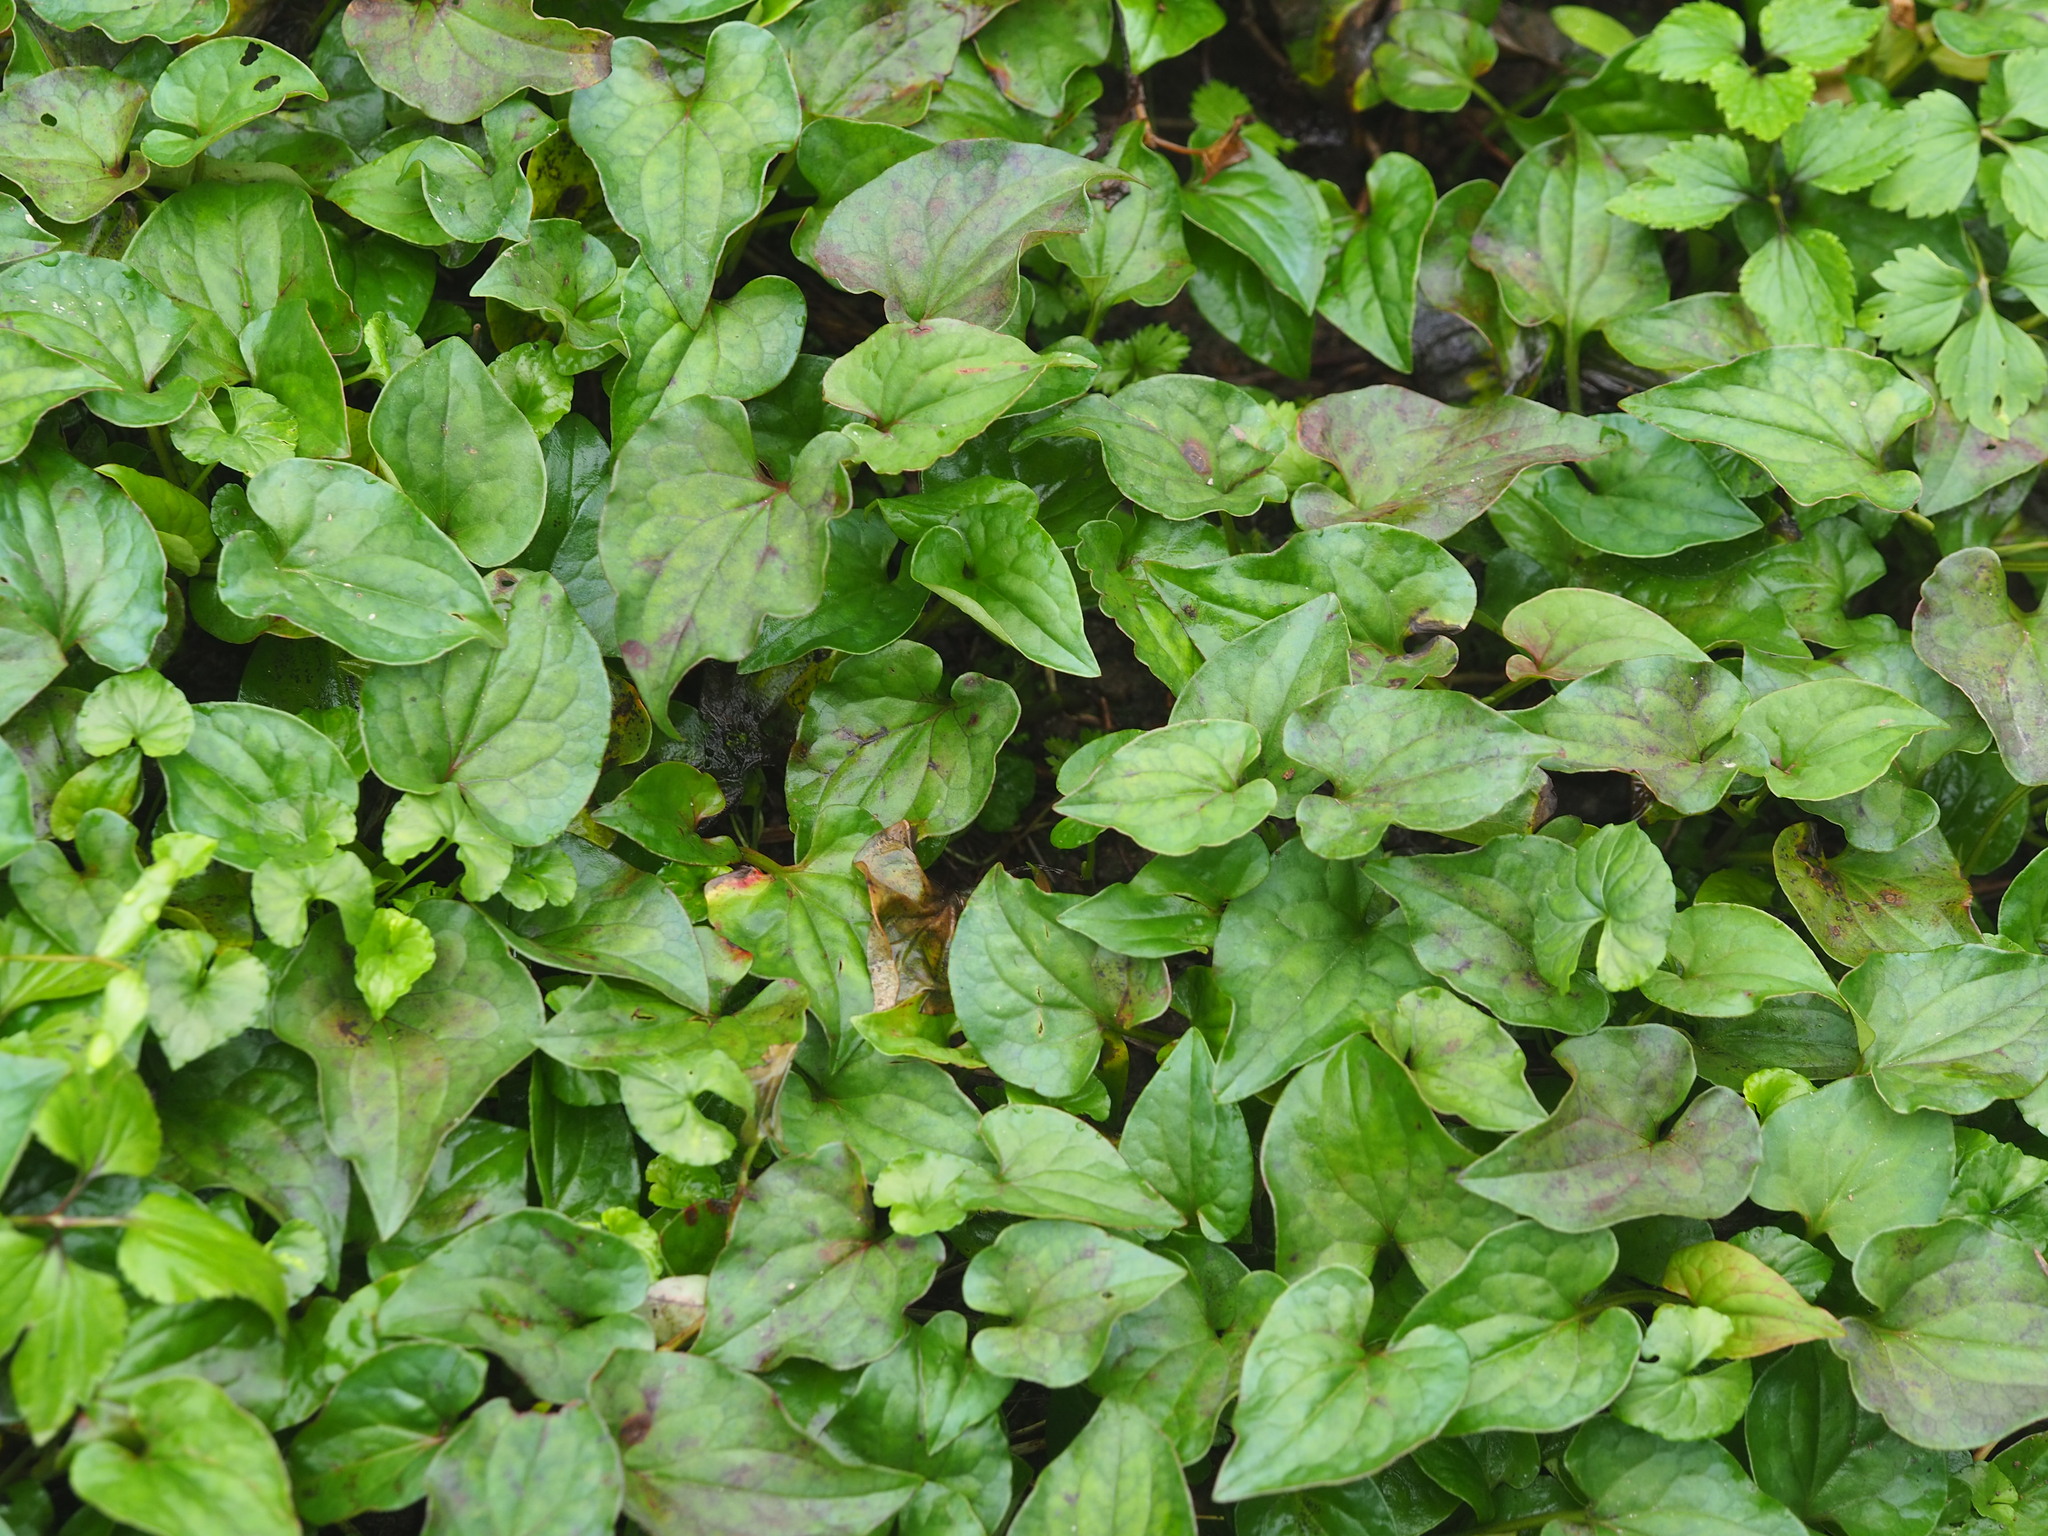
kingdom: Plantae
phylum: Tracheophyta
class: Magnoliopsida
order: Piperales
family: Saururaceae
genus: Houttuynia
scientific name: Houttuynia cordata
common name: Chameleon
